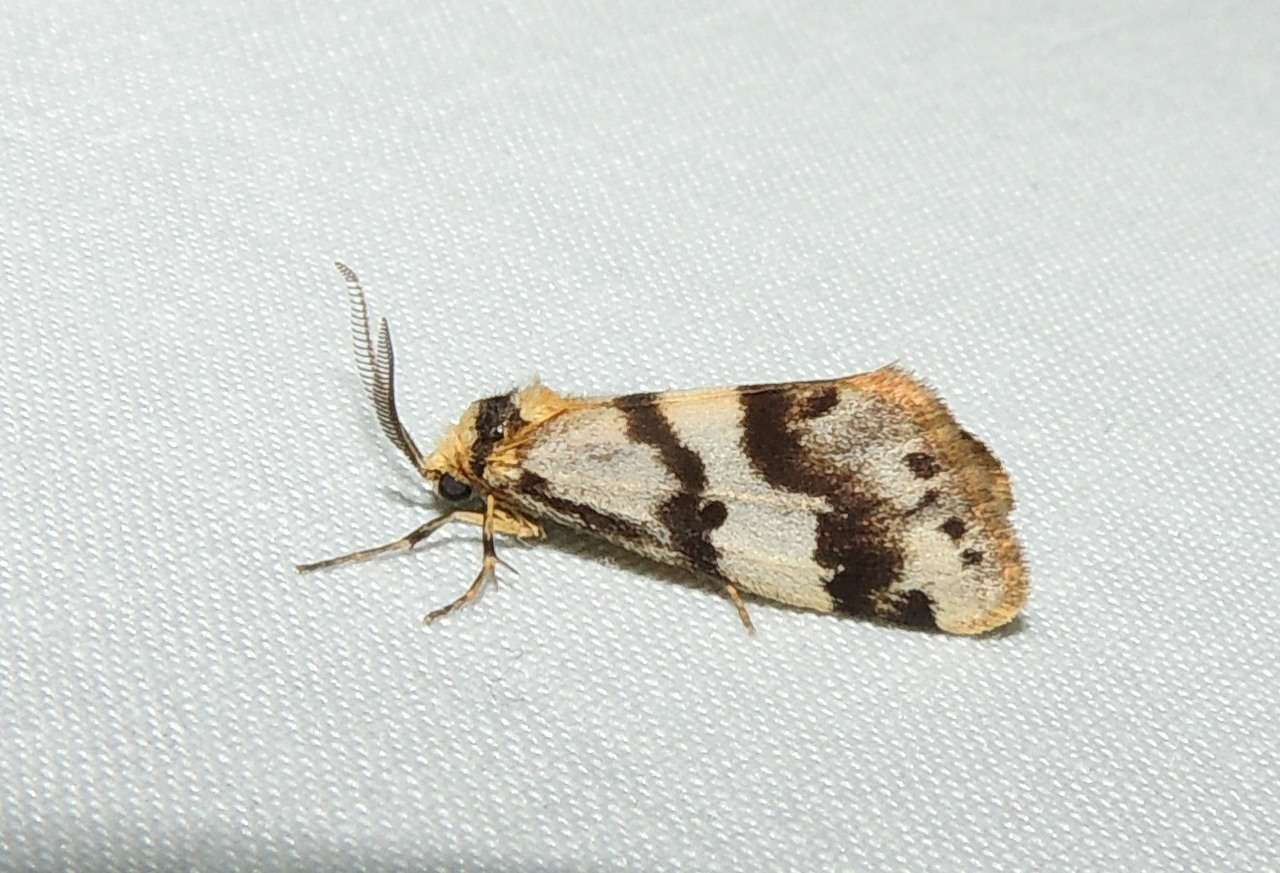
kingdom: Animalia
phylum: Arthropoda
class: Insecta
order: Lepidoptera
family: Erebidae
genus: Anestia
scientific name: Anestia
